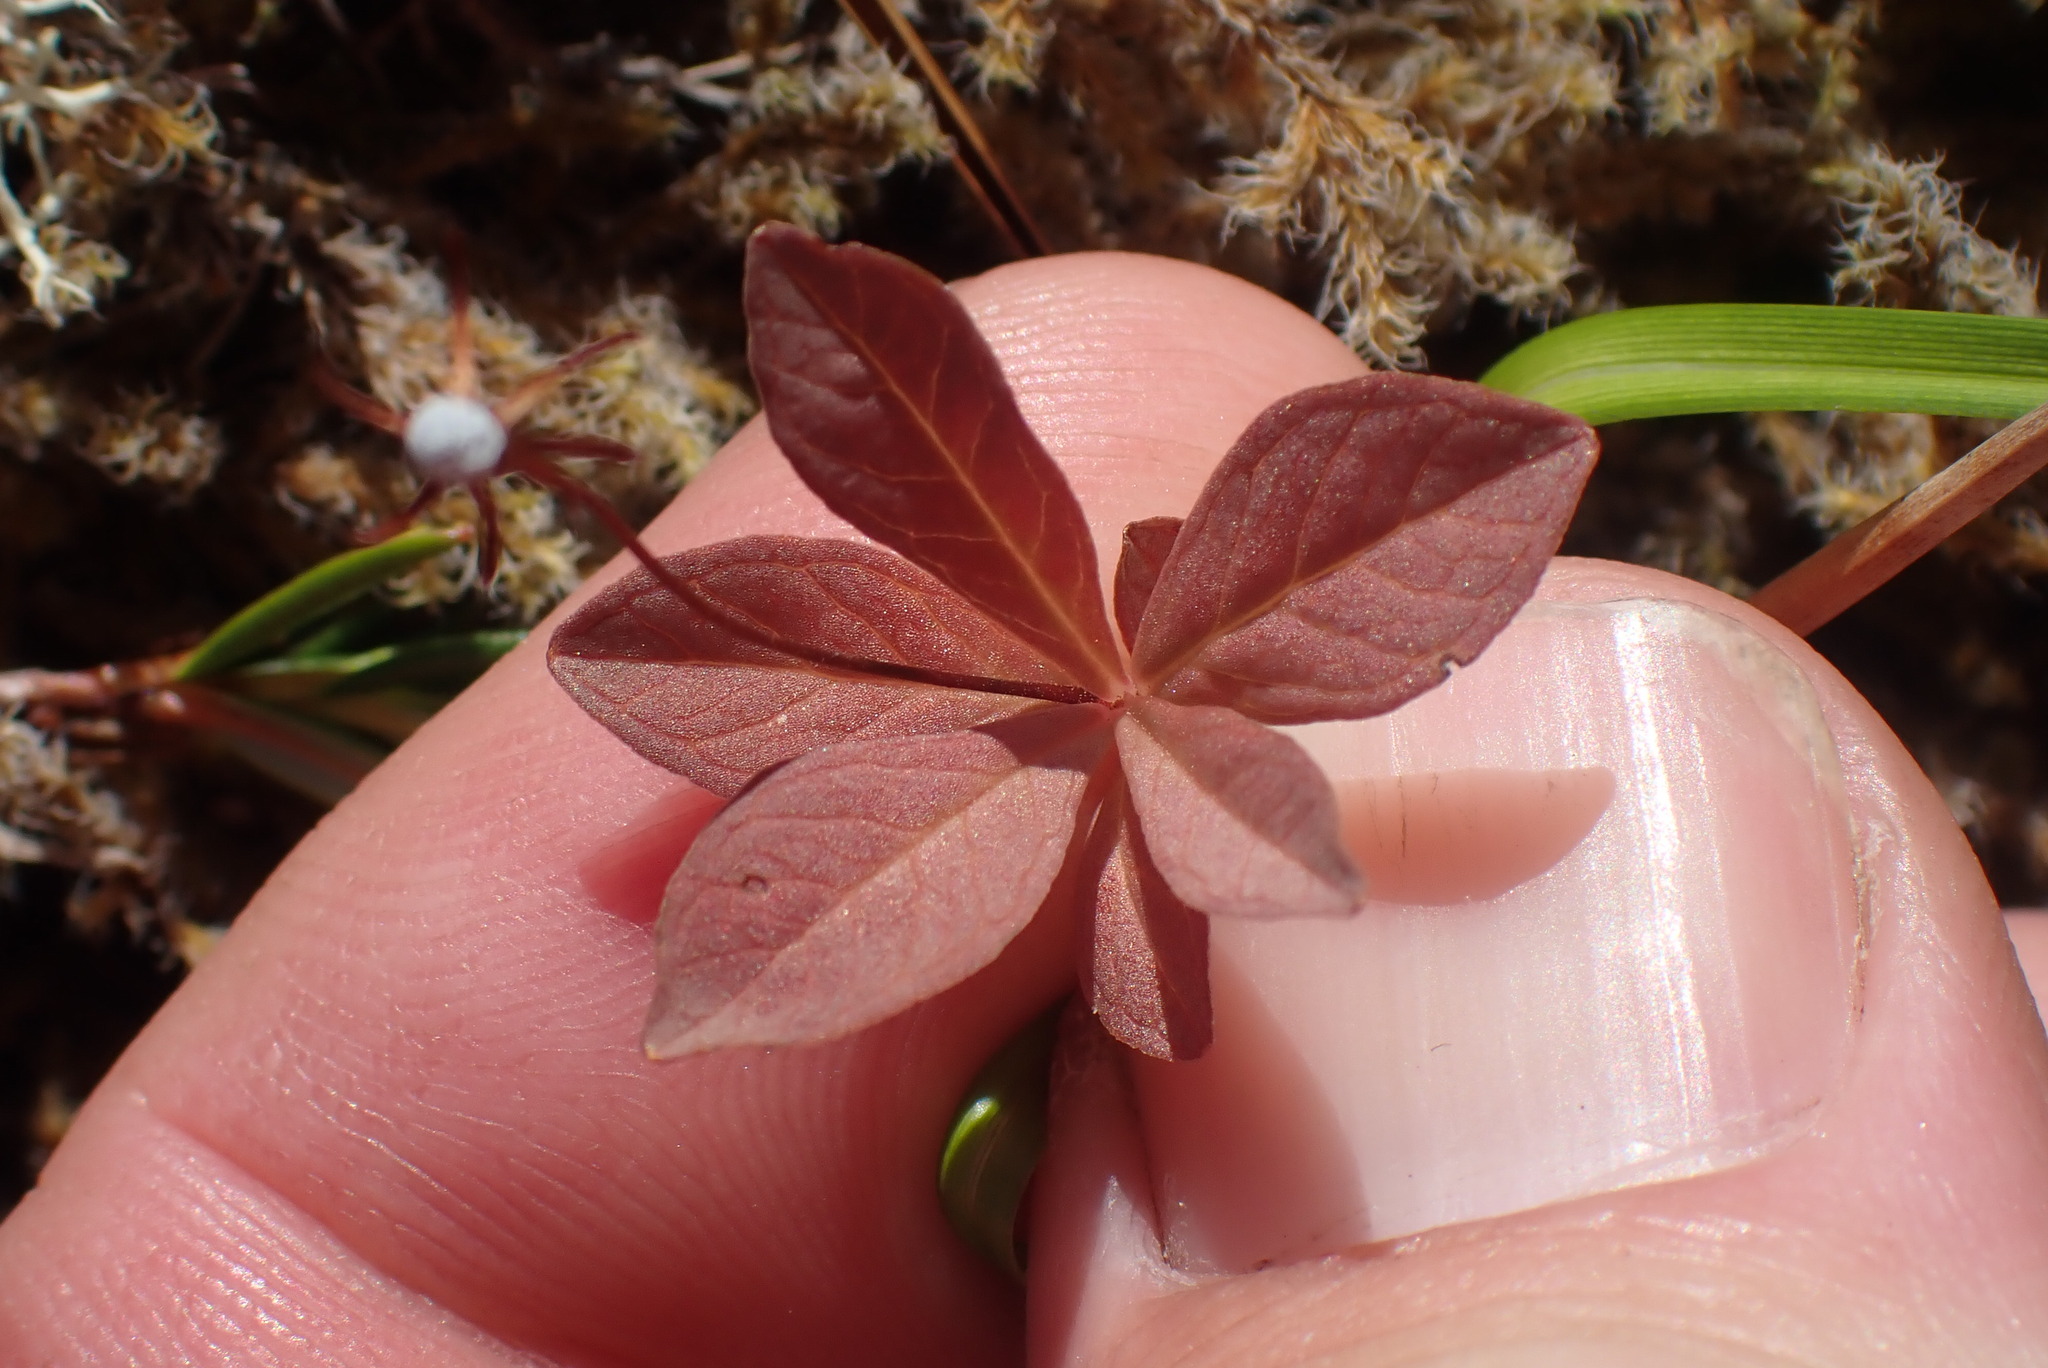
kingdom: Plantae
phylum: Tracheophyta
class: Magnoliopsida
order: Ericales
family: Primulaceae
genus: Lysimachia
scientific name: Lysimachia europaea
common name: Arctic starflower
